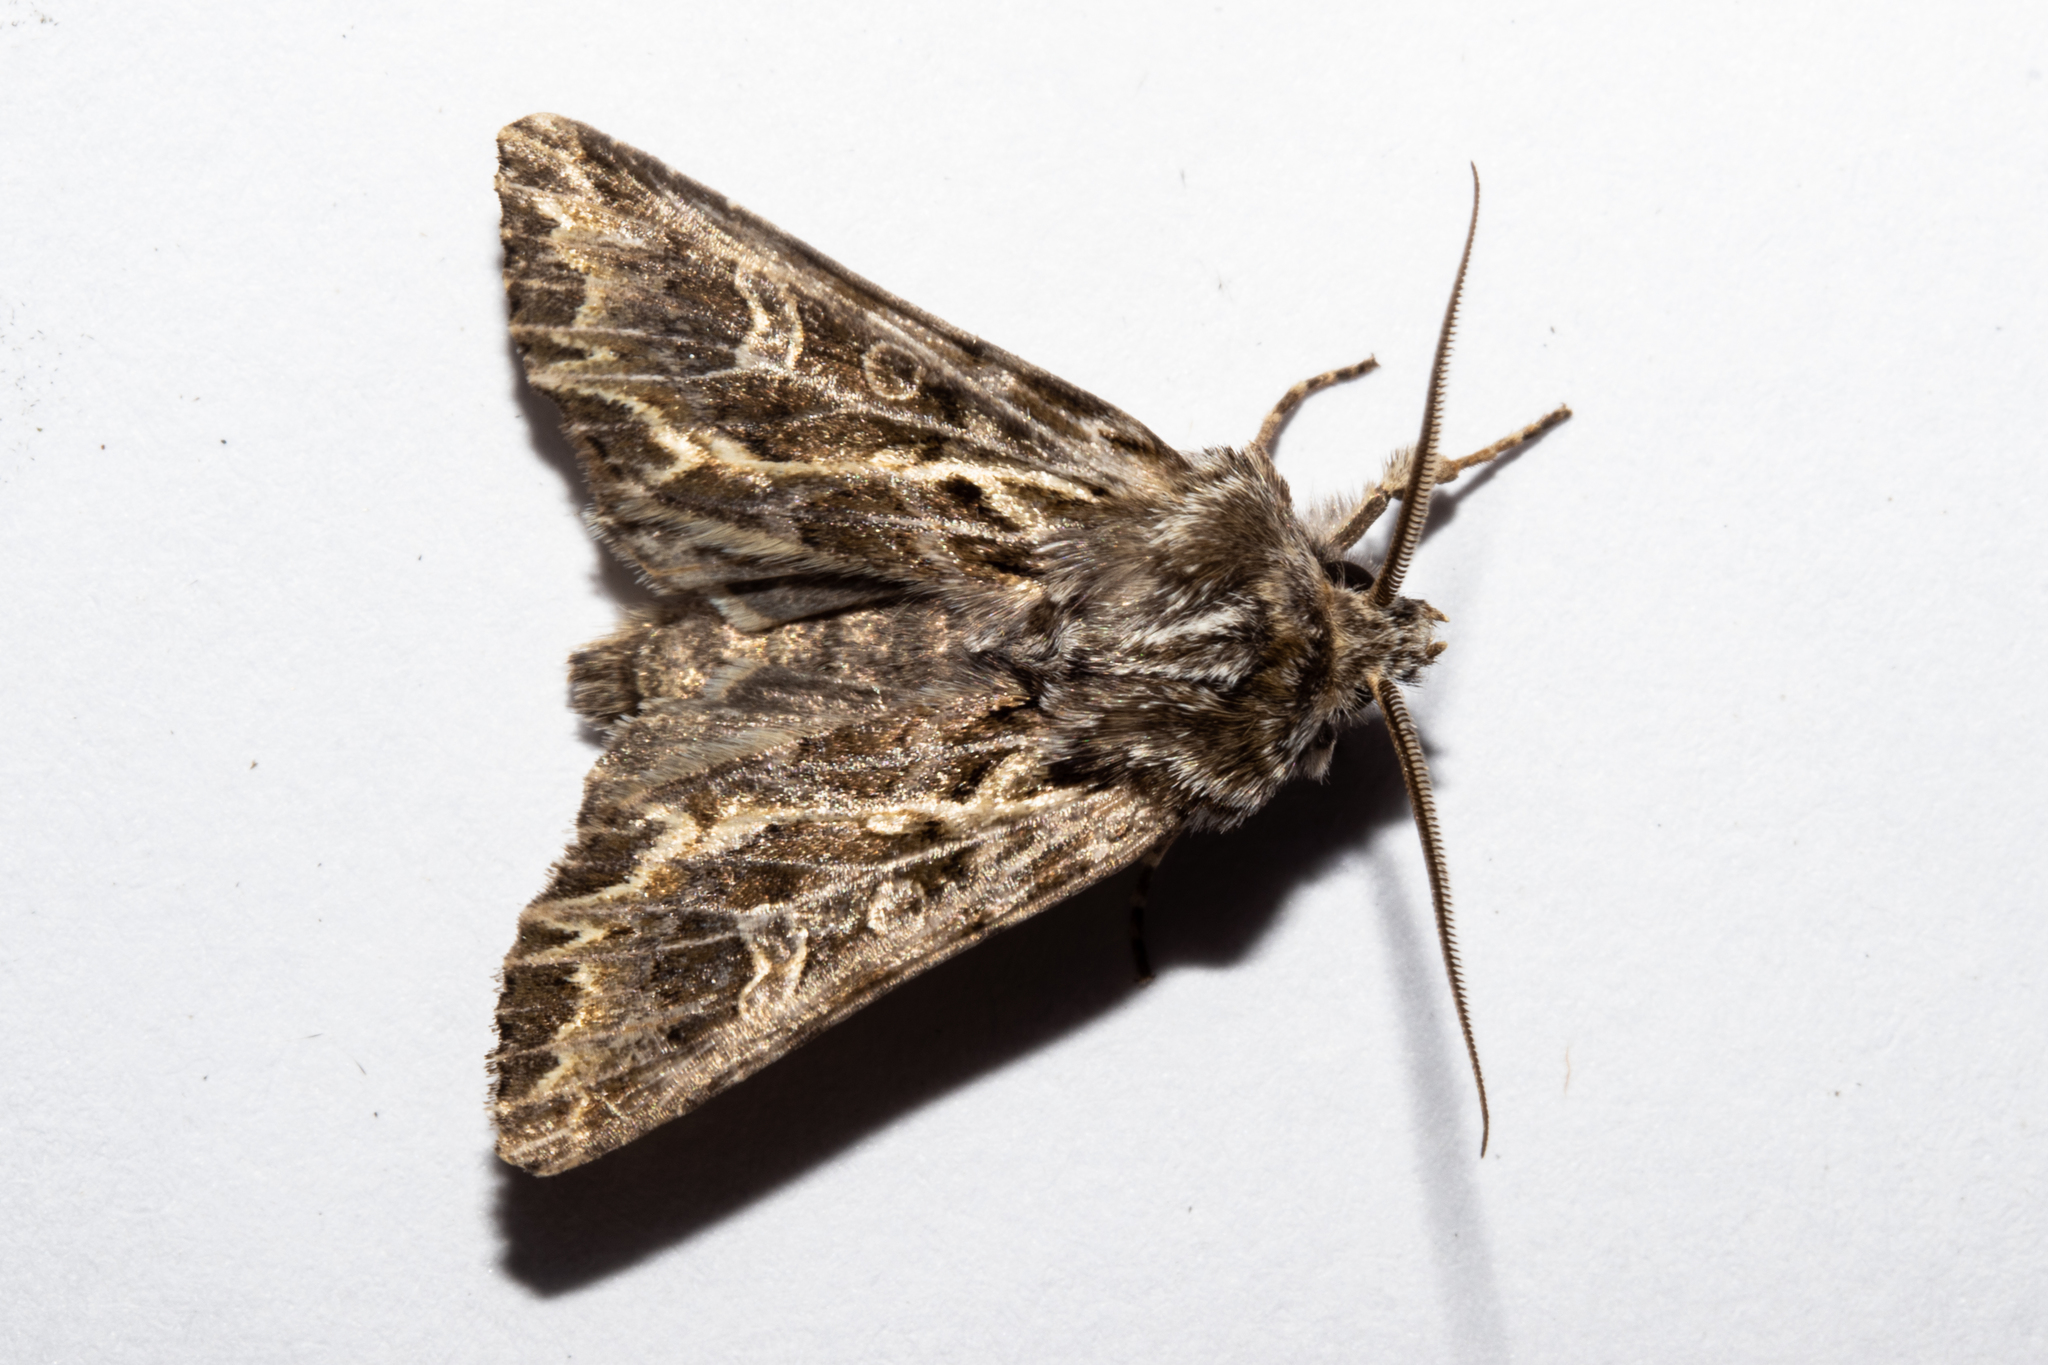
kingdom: Animalia
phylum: Arthropoda
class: Insecta
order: Lepidoptera
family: Noctuidae
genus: Ichneutica
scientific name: Ichneutica
